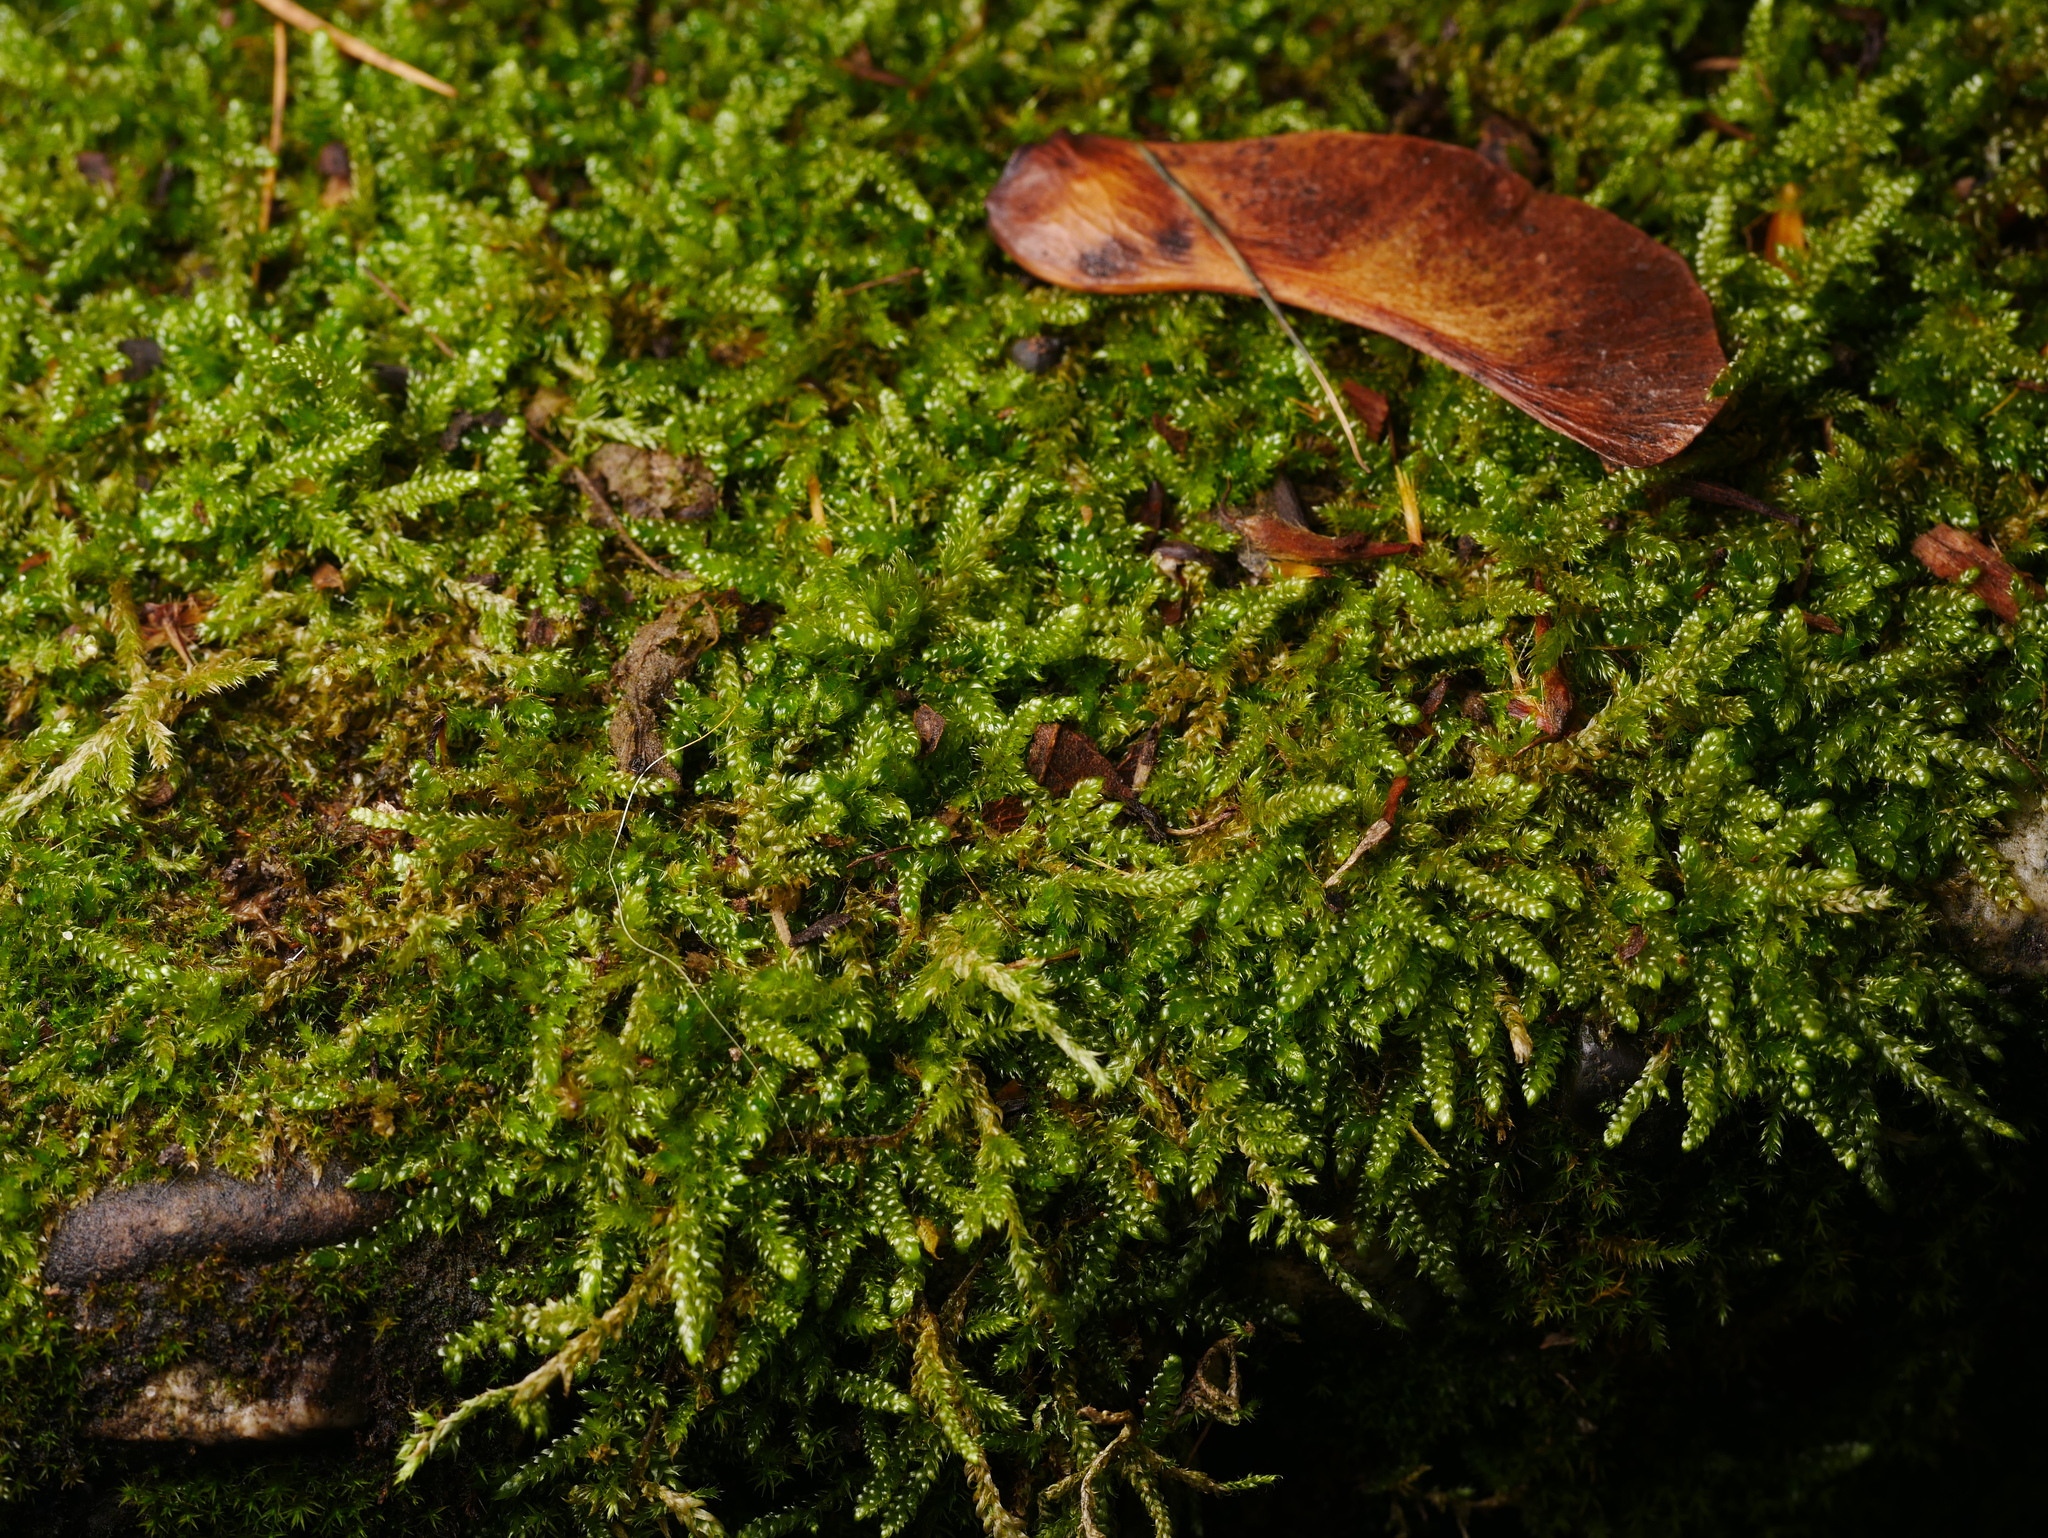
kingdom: Plantae
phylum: Bryophyta
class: Bryopsida
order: Hypnales
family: Hypnaceae
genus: Hypnum
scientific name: Hypnum cupressiforme
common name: Cypress-leaved plait-moss
